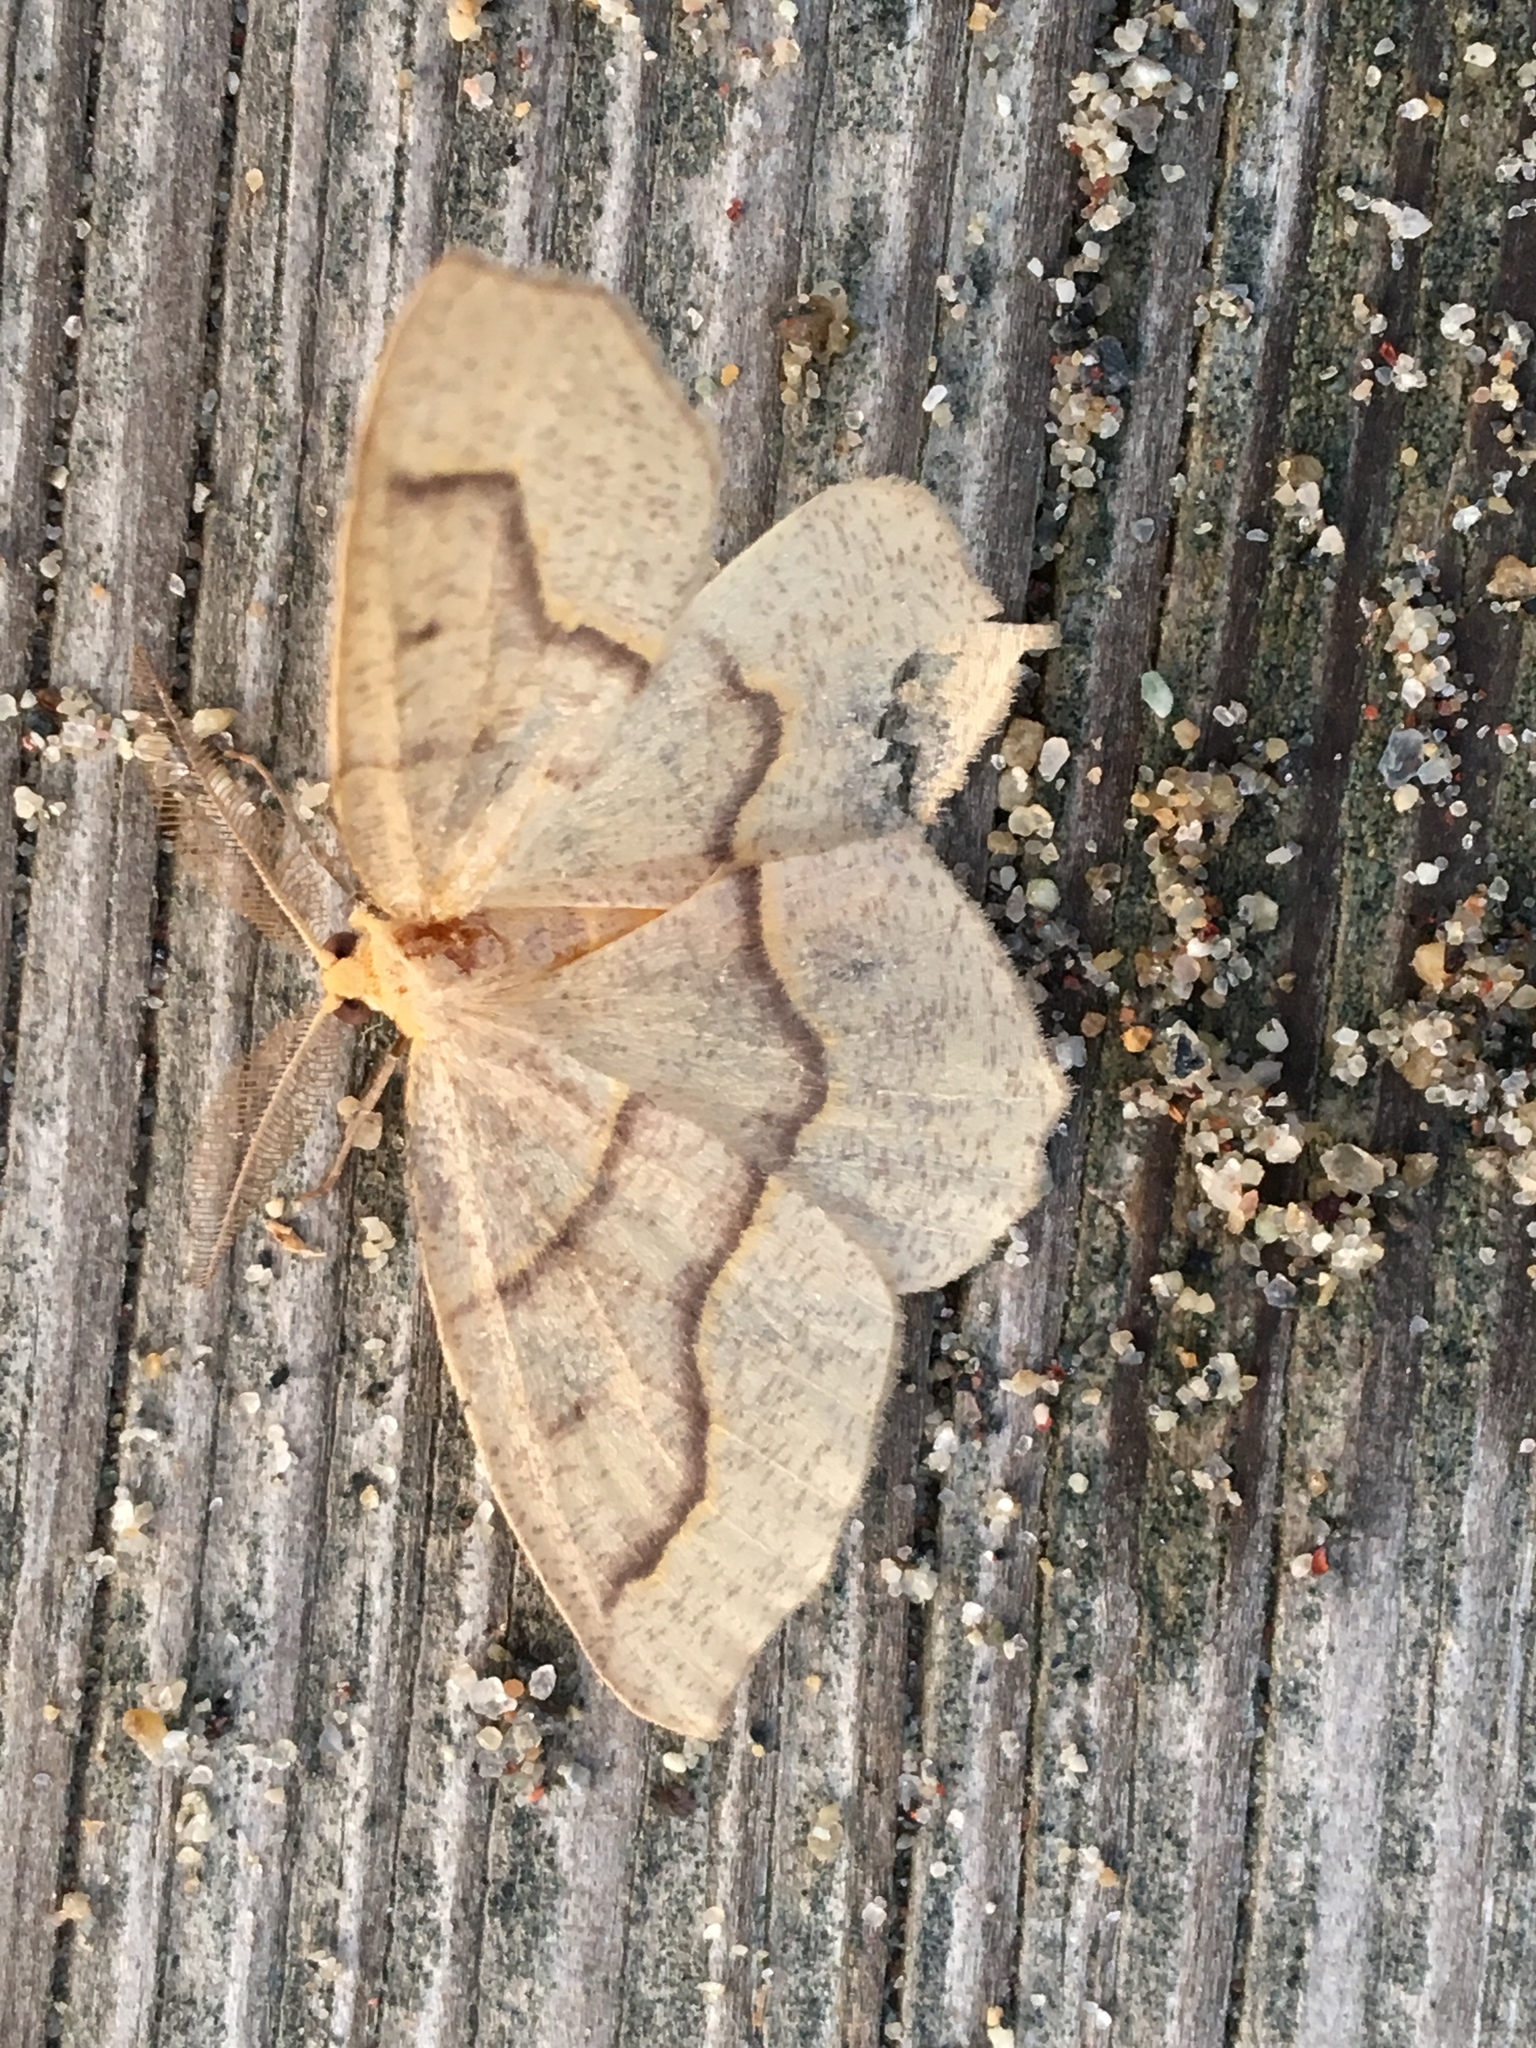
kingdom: Animalia
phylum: Arthropoda
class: Insecta
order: Lepidoptera
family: Geometridae
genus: Lambdina
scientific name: Lambdina fiscellaria
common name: Hemlock looper
